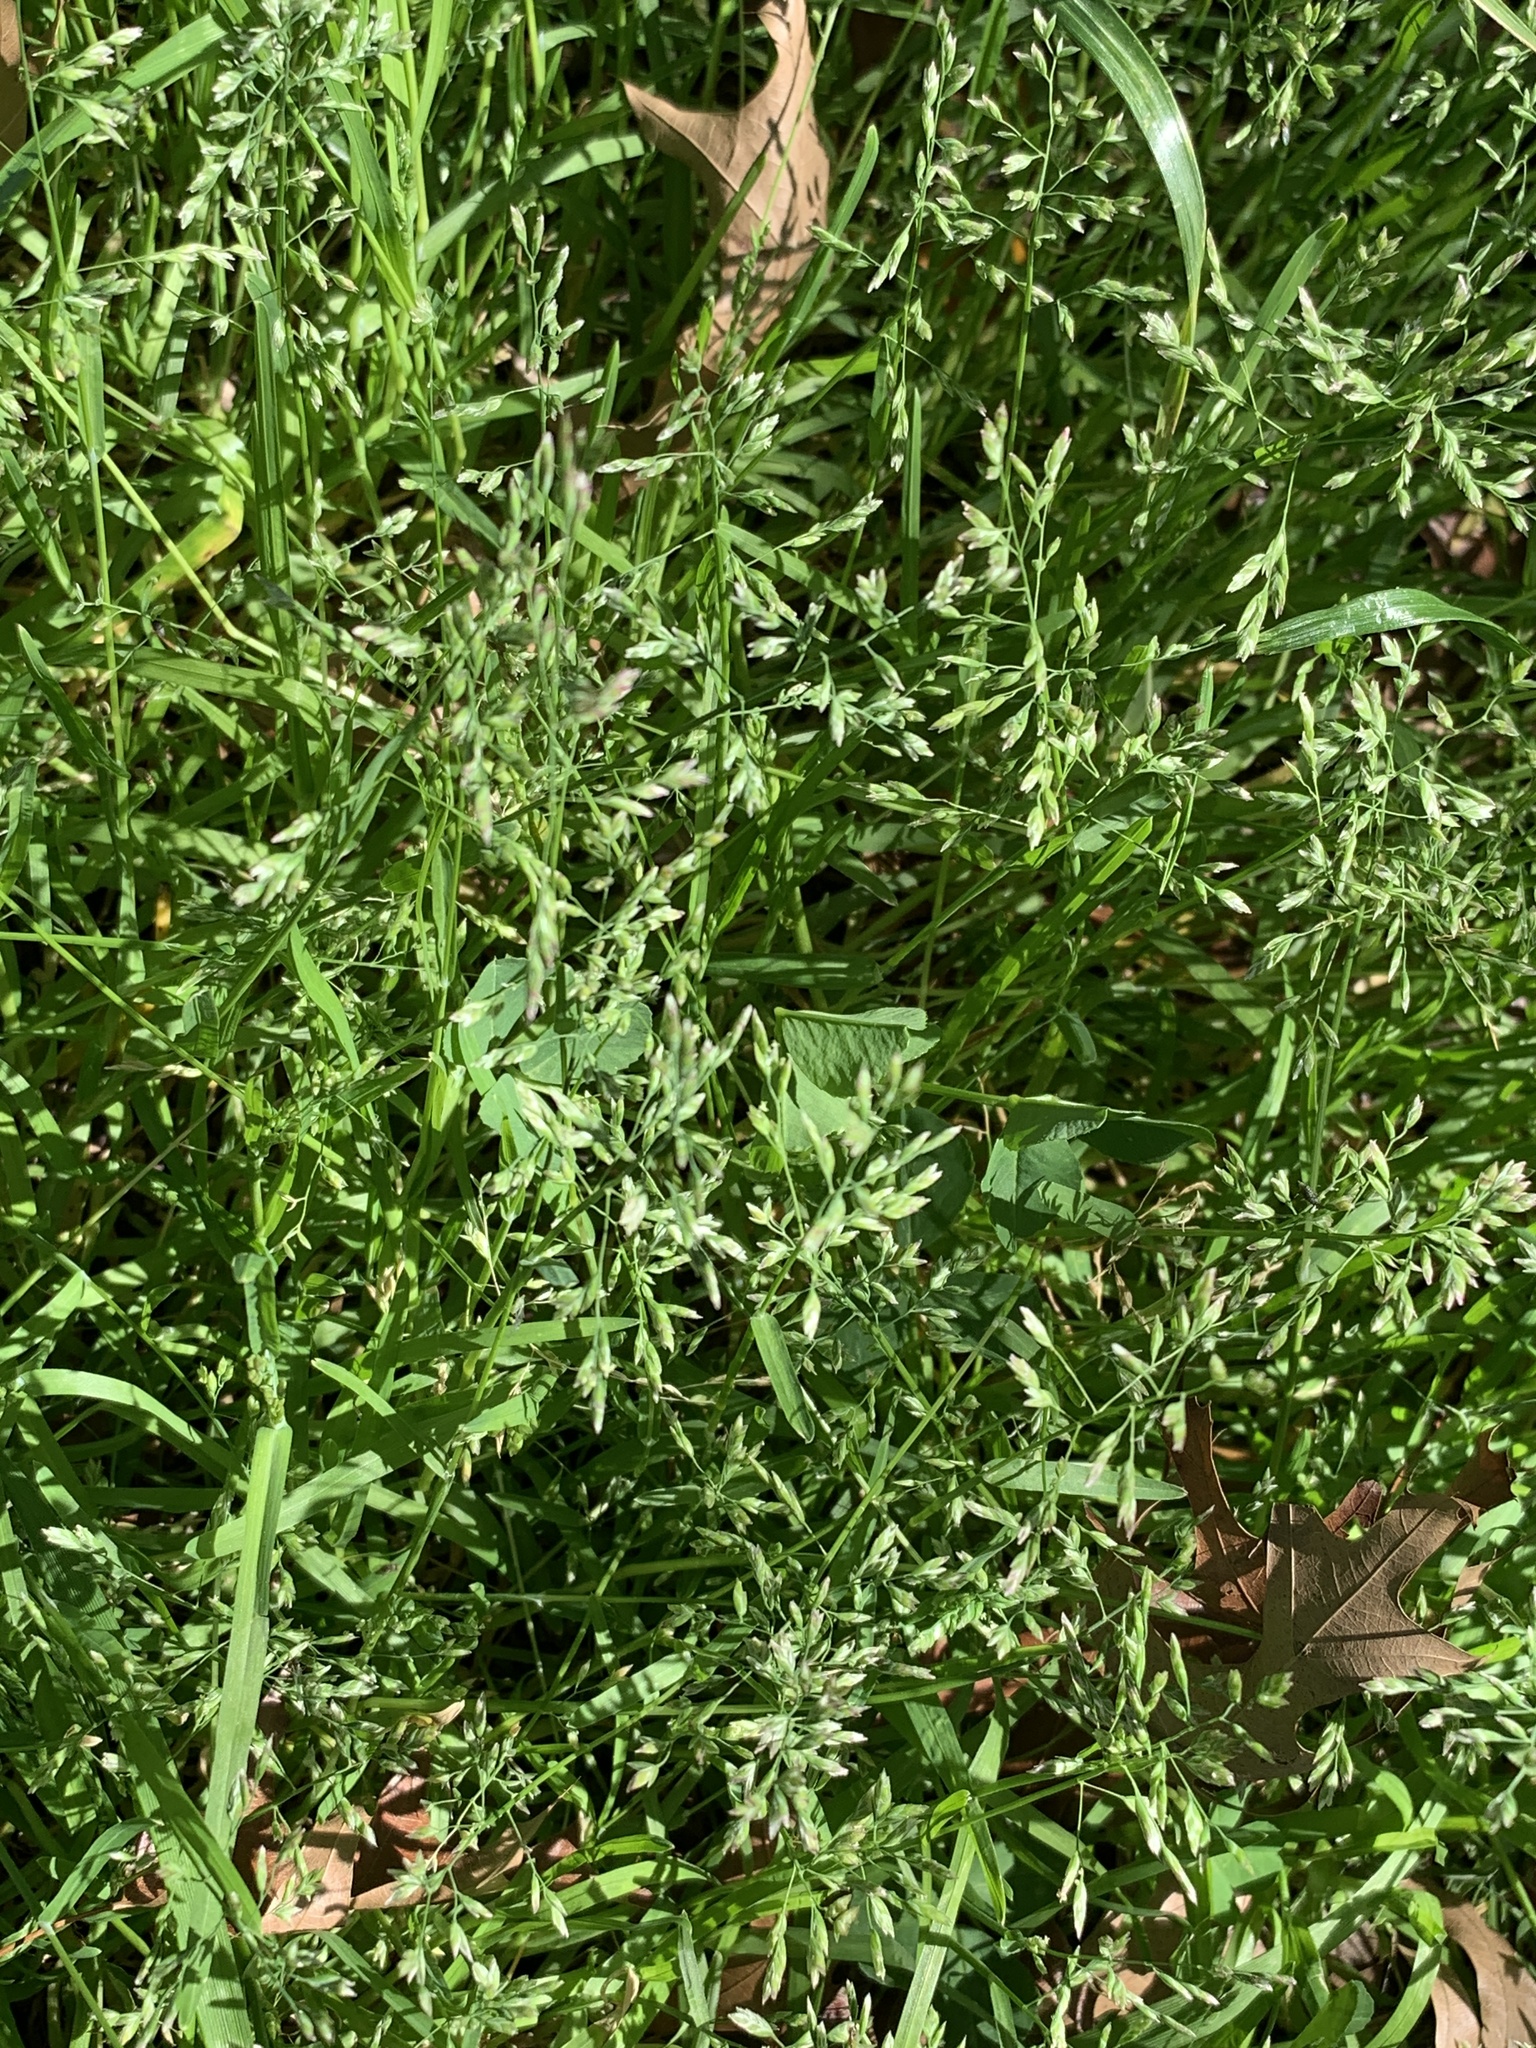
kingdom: Plantae
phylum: Tracheophyta
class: Liliopsida
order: Poales
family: Poaceae
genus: Poa
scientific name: Poa annua
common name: Annual bluegrass
